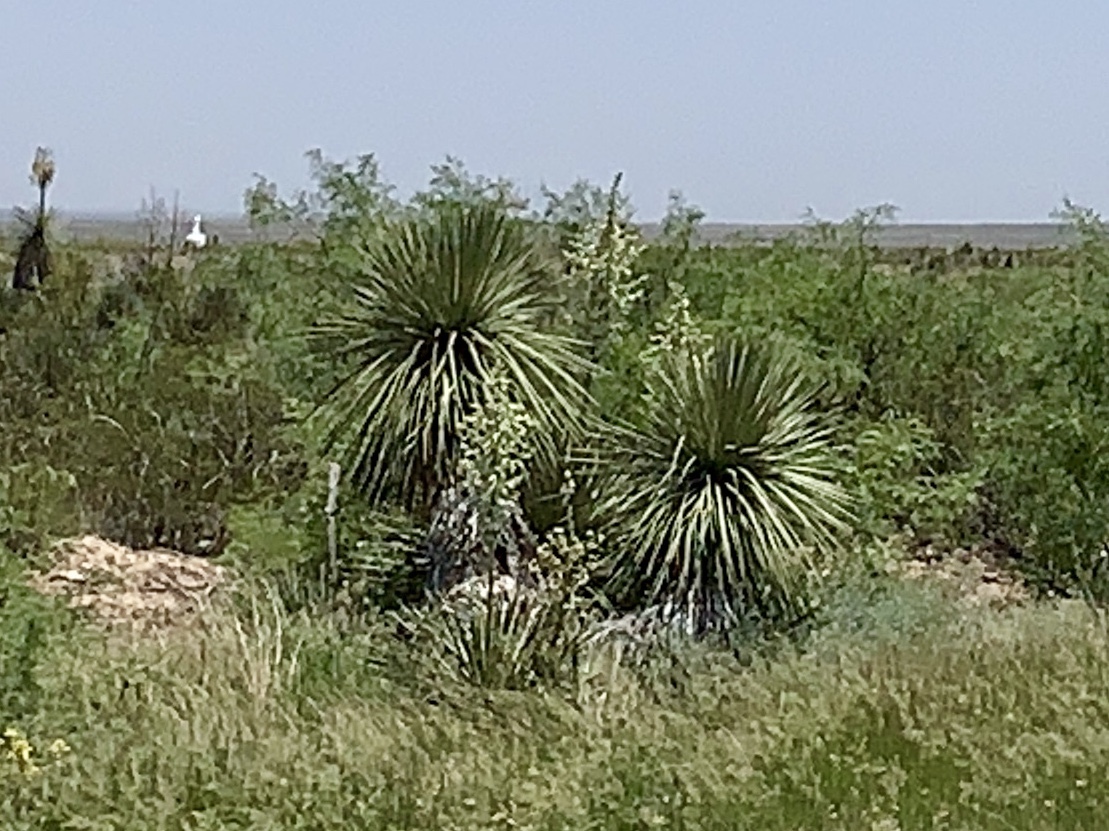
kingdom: Plantae
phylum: Tracheophyta
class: Liliopsida
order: Asparagales
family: Asparagaceae
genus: Yucca
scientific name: Yucca elata
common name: Palmella
